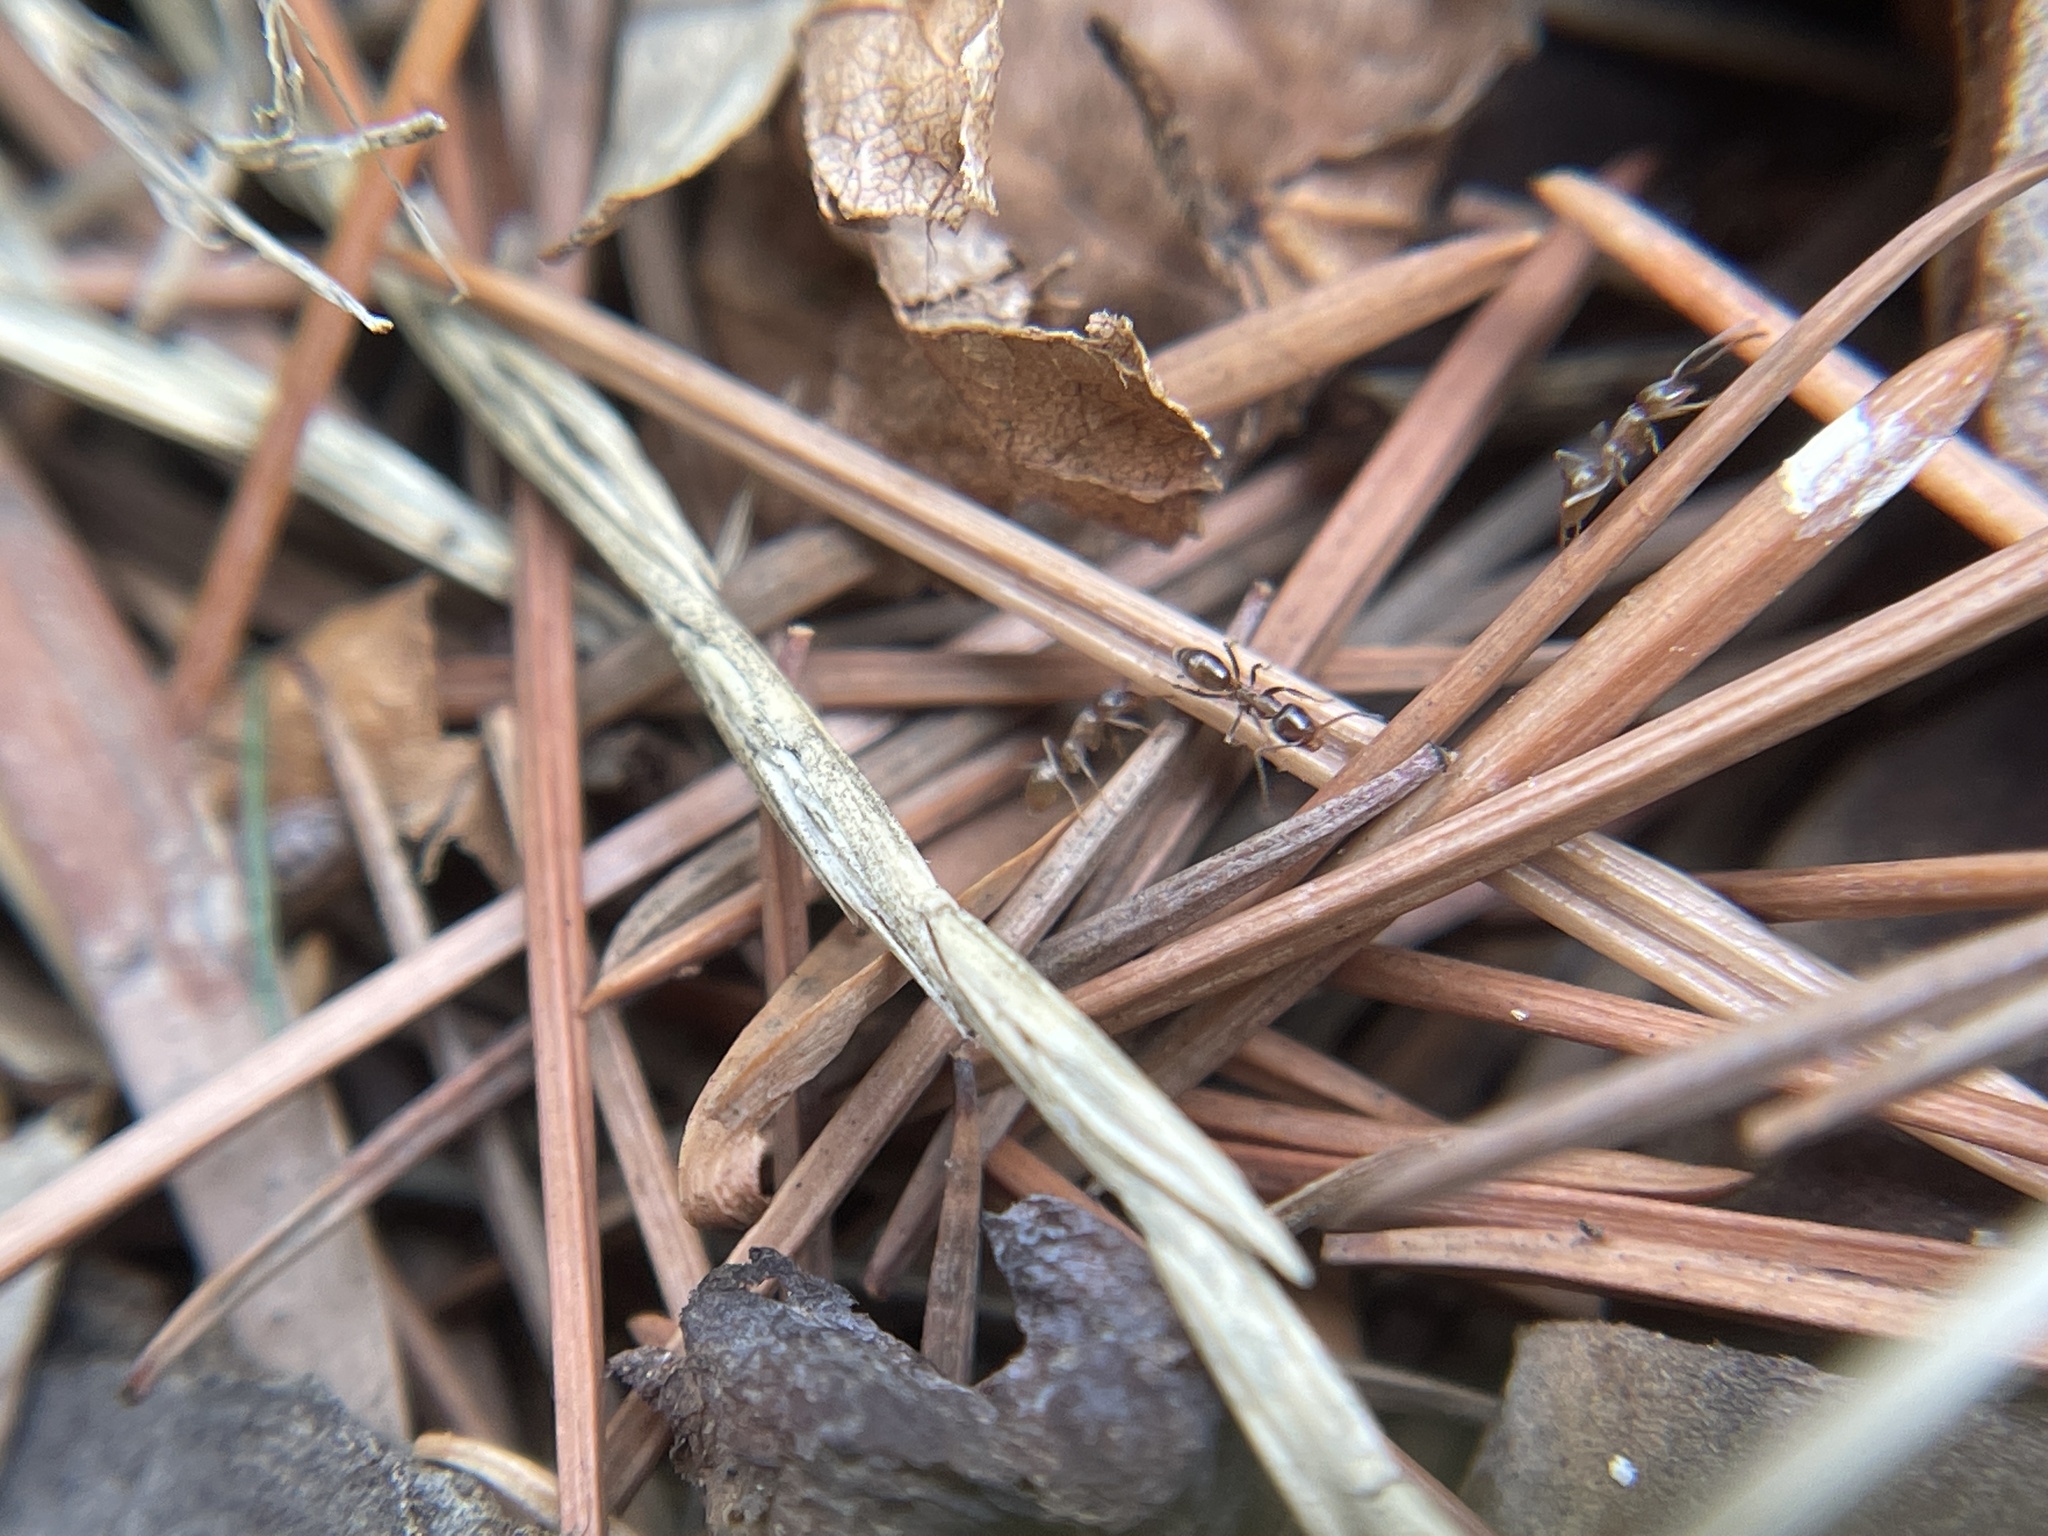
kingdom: Animalia
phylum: Arthropoda
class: Insecta
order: Hymenoptera
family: Formicidae
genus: Linepithema
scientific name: Linepithema humile
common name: Argentine ant
